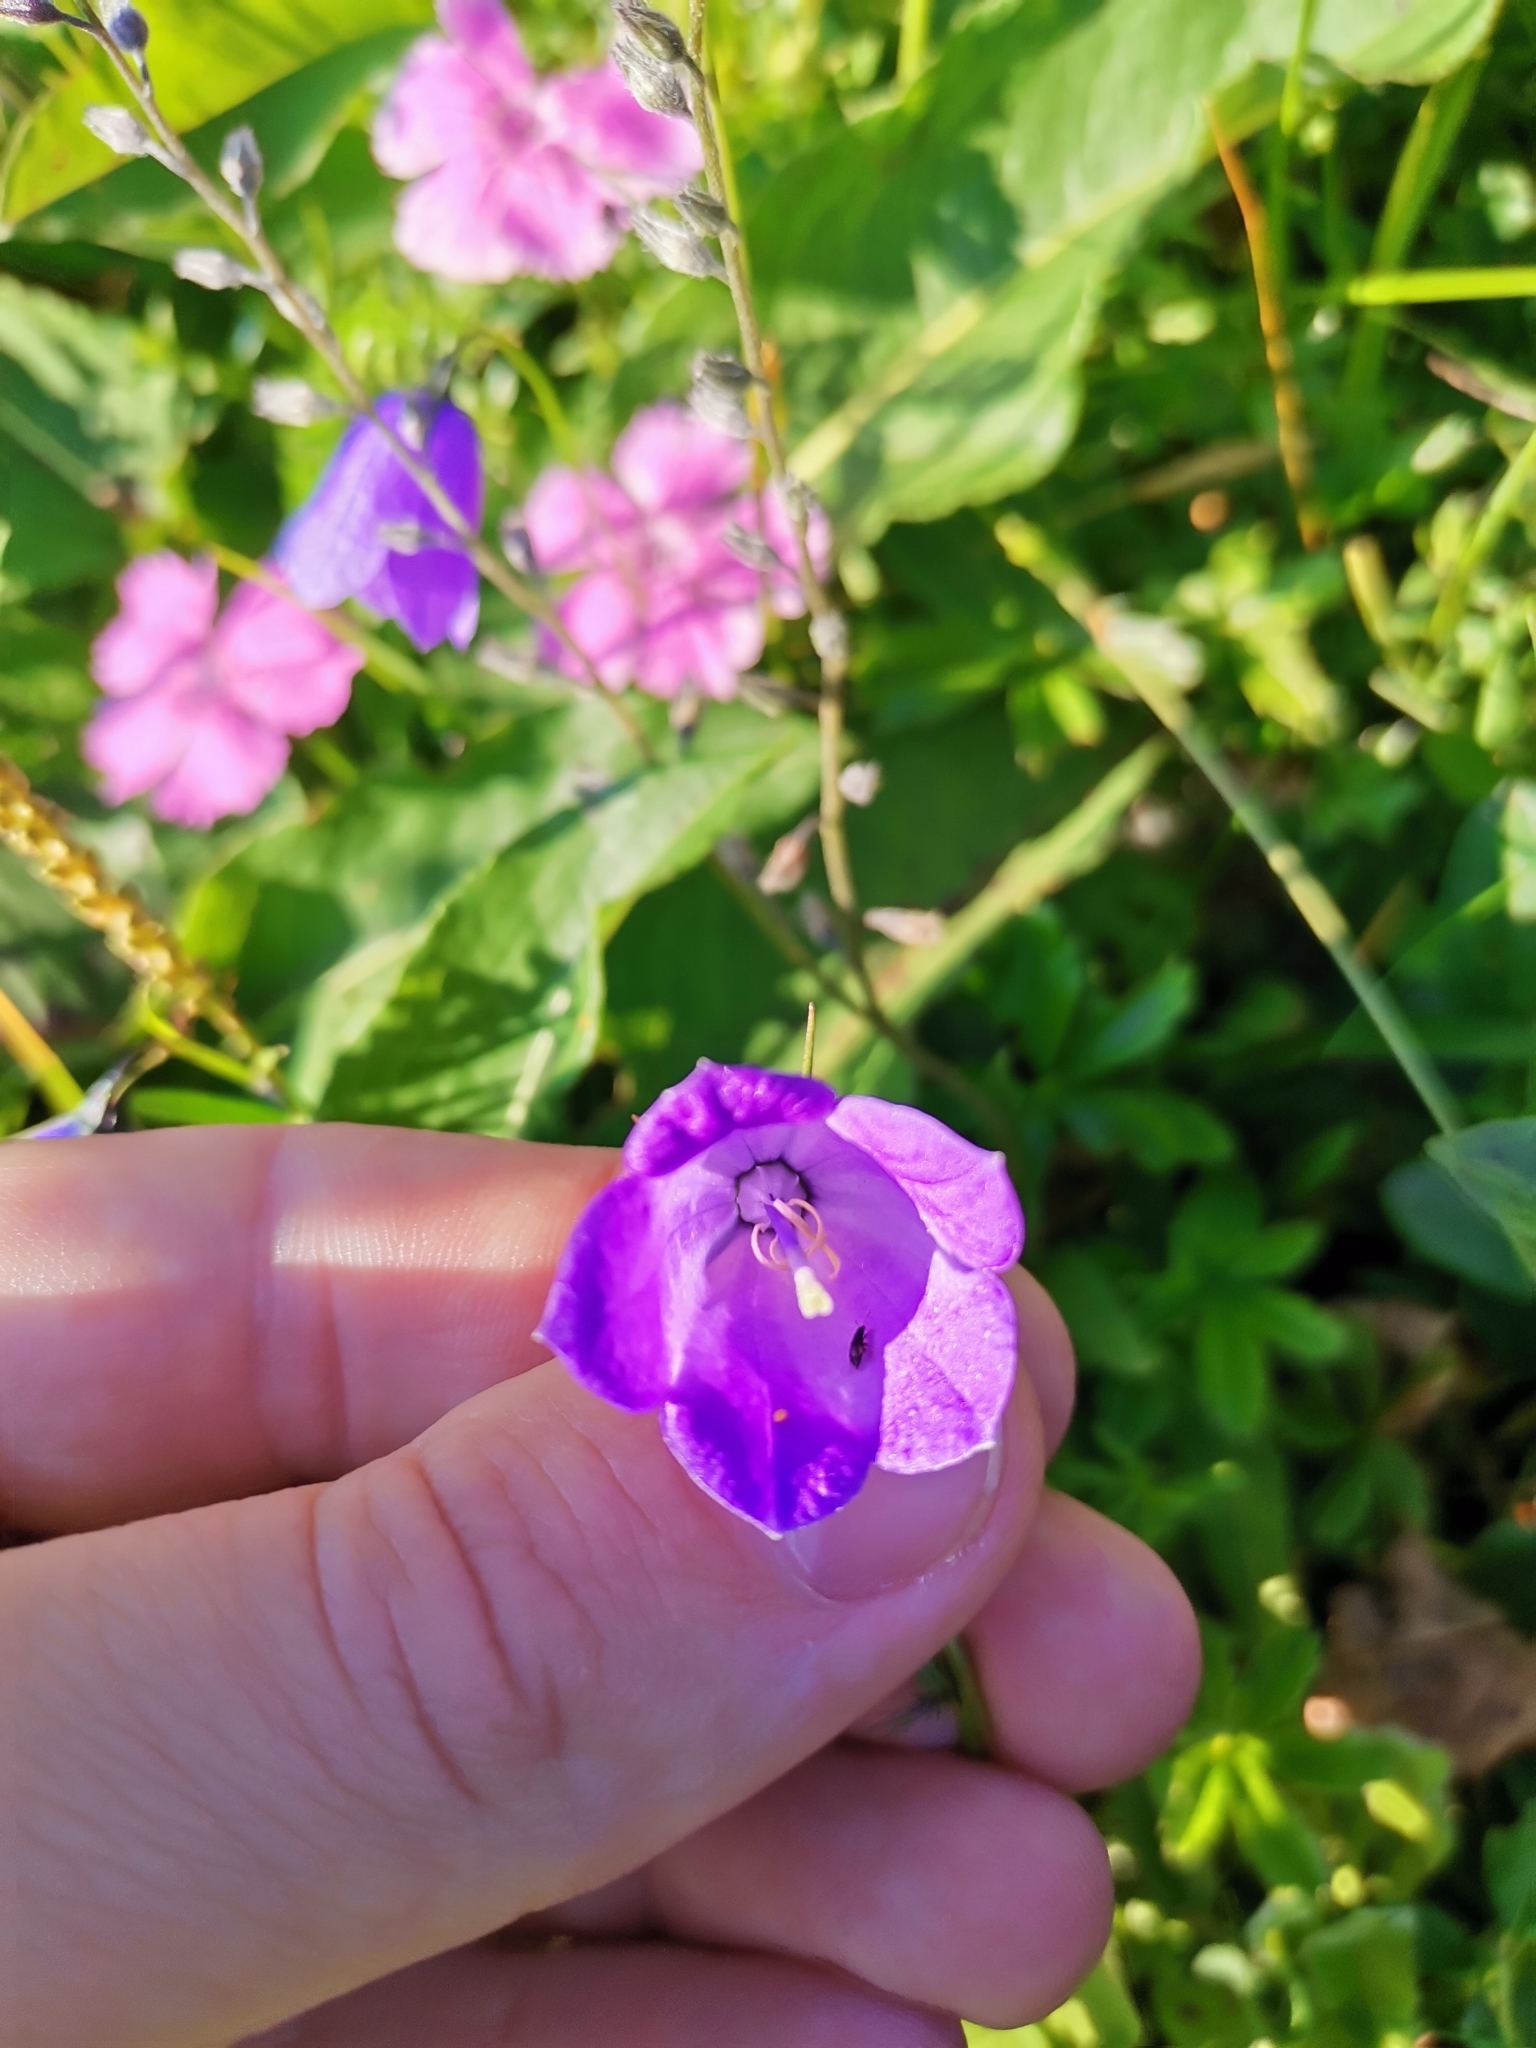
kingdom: Plantae
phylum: Tracheophyta
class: Magnoliopsida
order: Asterales
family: Campanulaceae
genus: Campanula
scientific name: Campanula scheuchzeri
